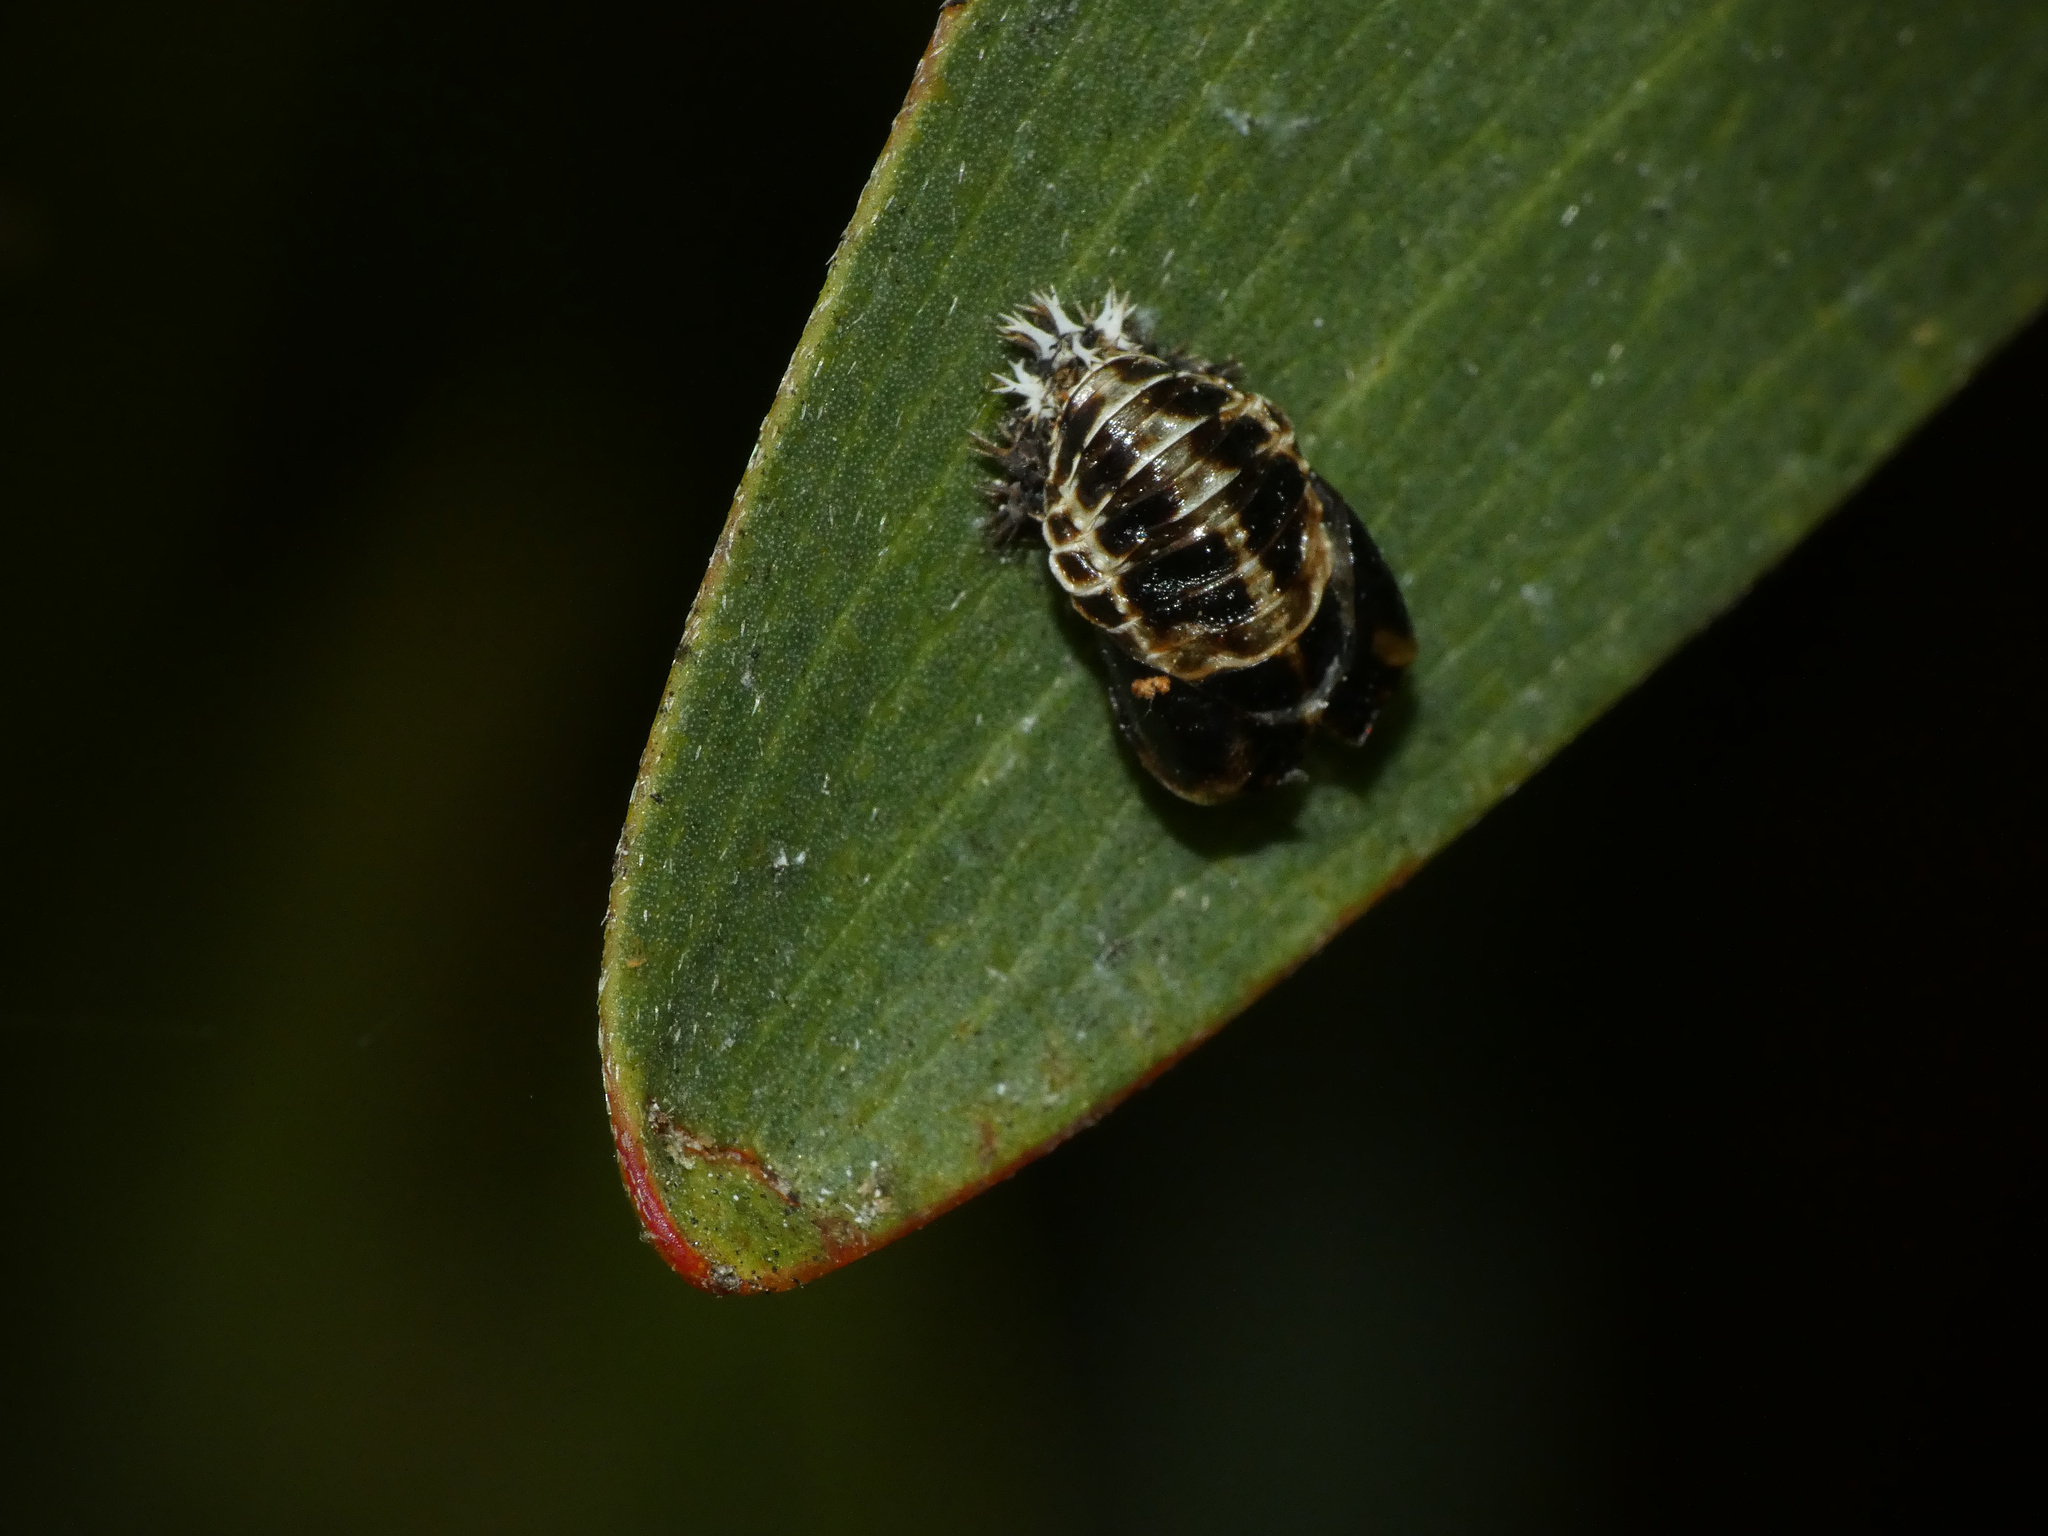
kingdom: Animalia
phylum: Arthropoda
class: Insecta
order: Coleoptera
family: Coccinellidae
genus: Harmonia
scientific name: Harmonia axyridis
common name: Harlequin ladybird
